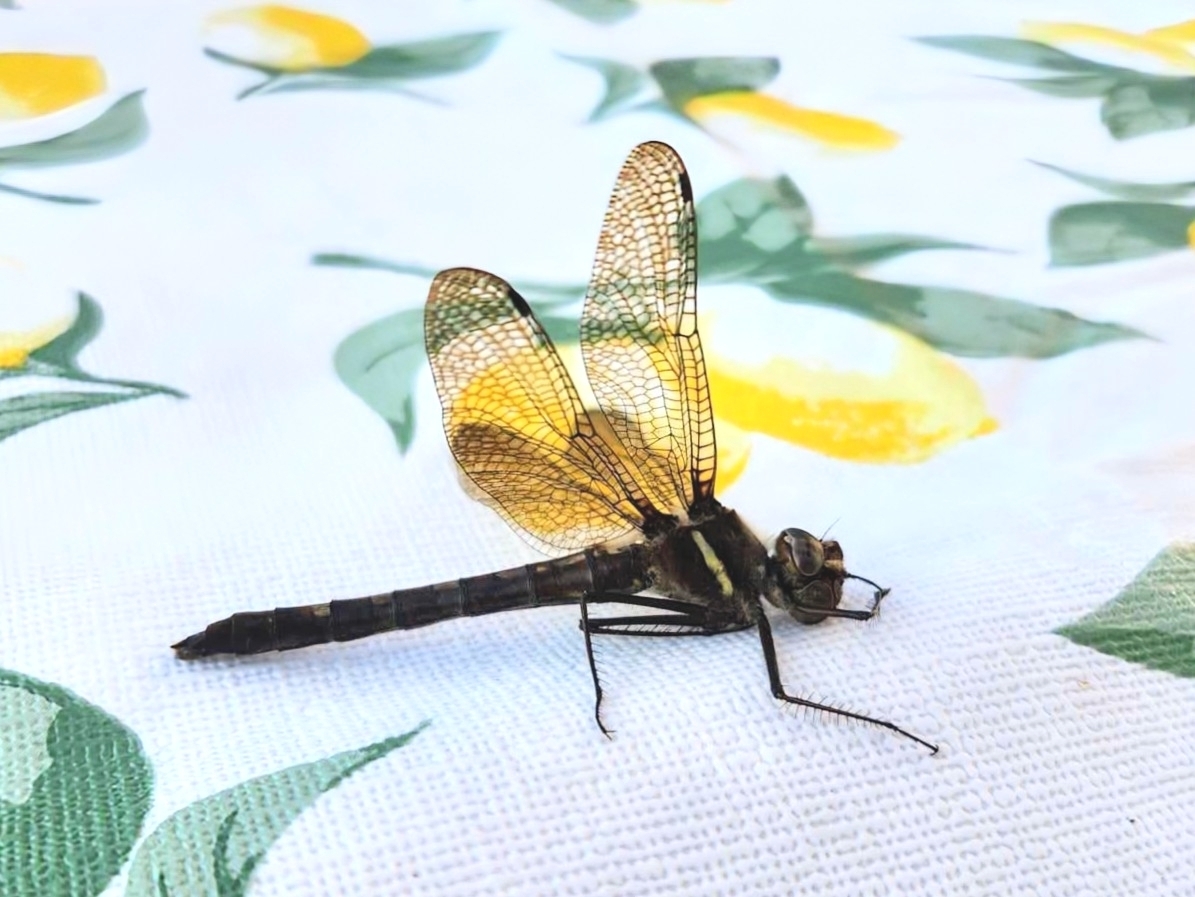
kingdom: Animalia
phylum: Arthropoda
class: Insecta
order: Odonata
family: Macromiidae
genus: Didymops
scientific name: Didymops transversa
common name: Stream cruiser
